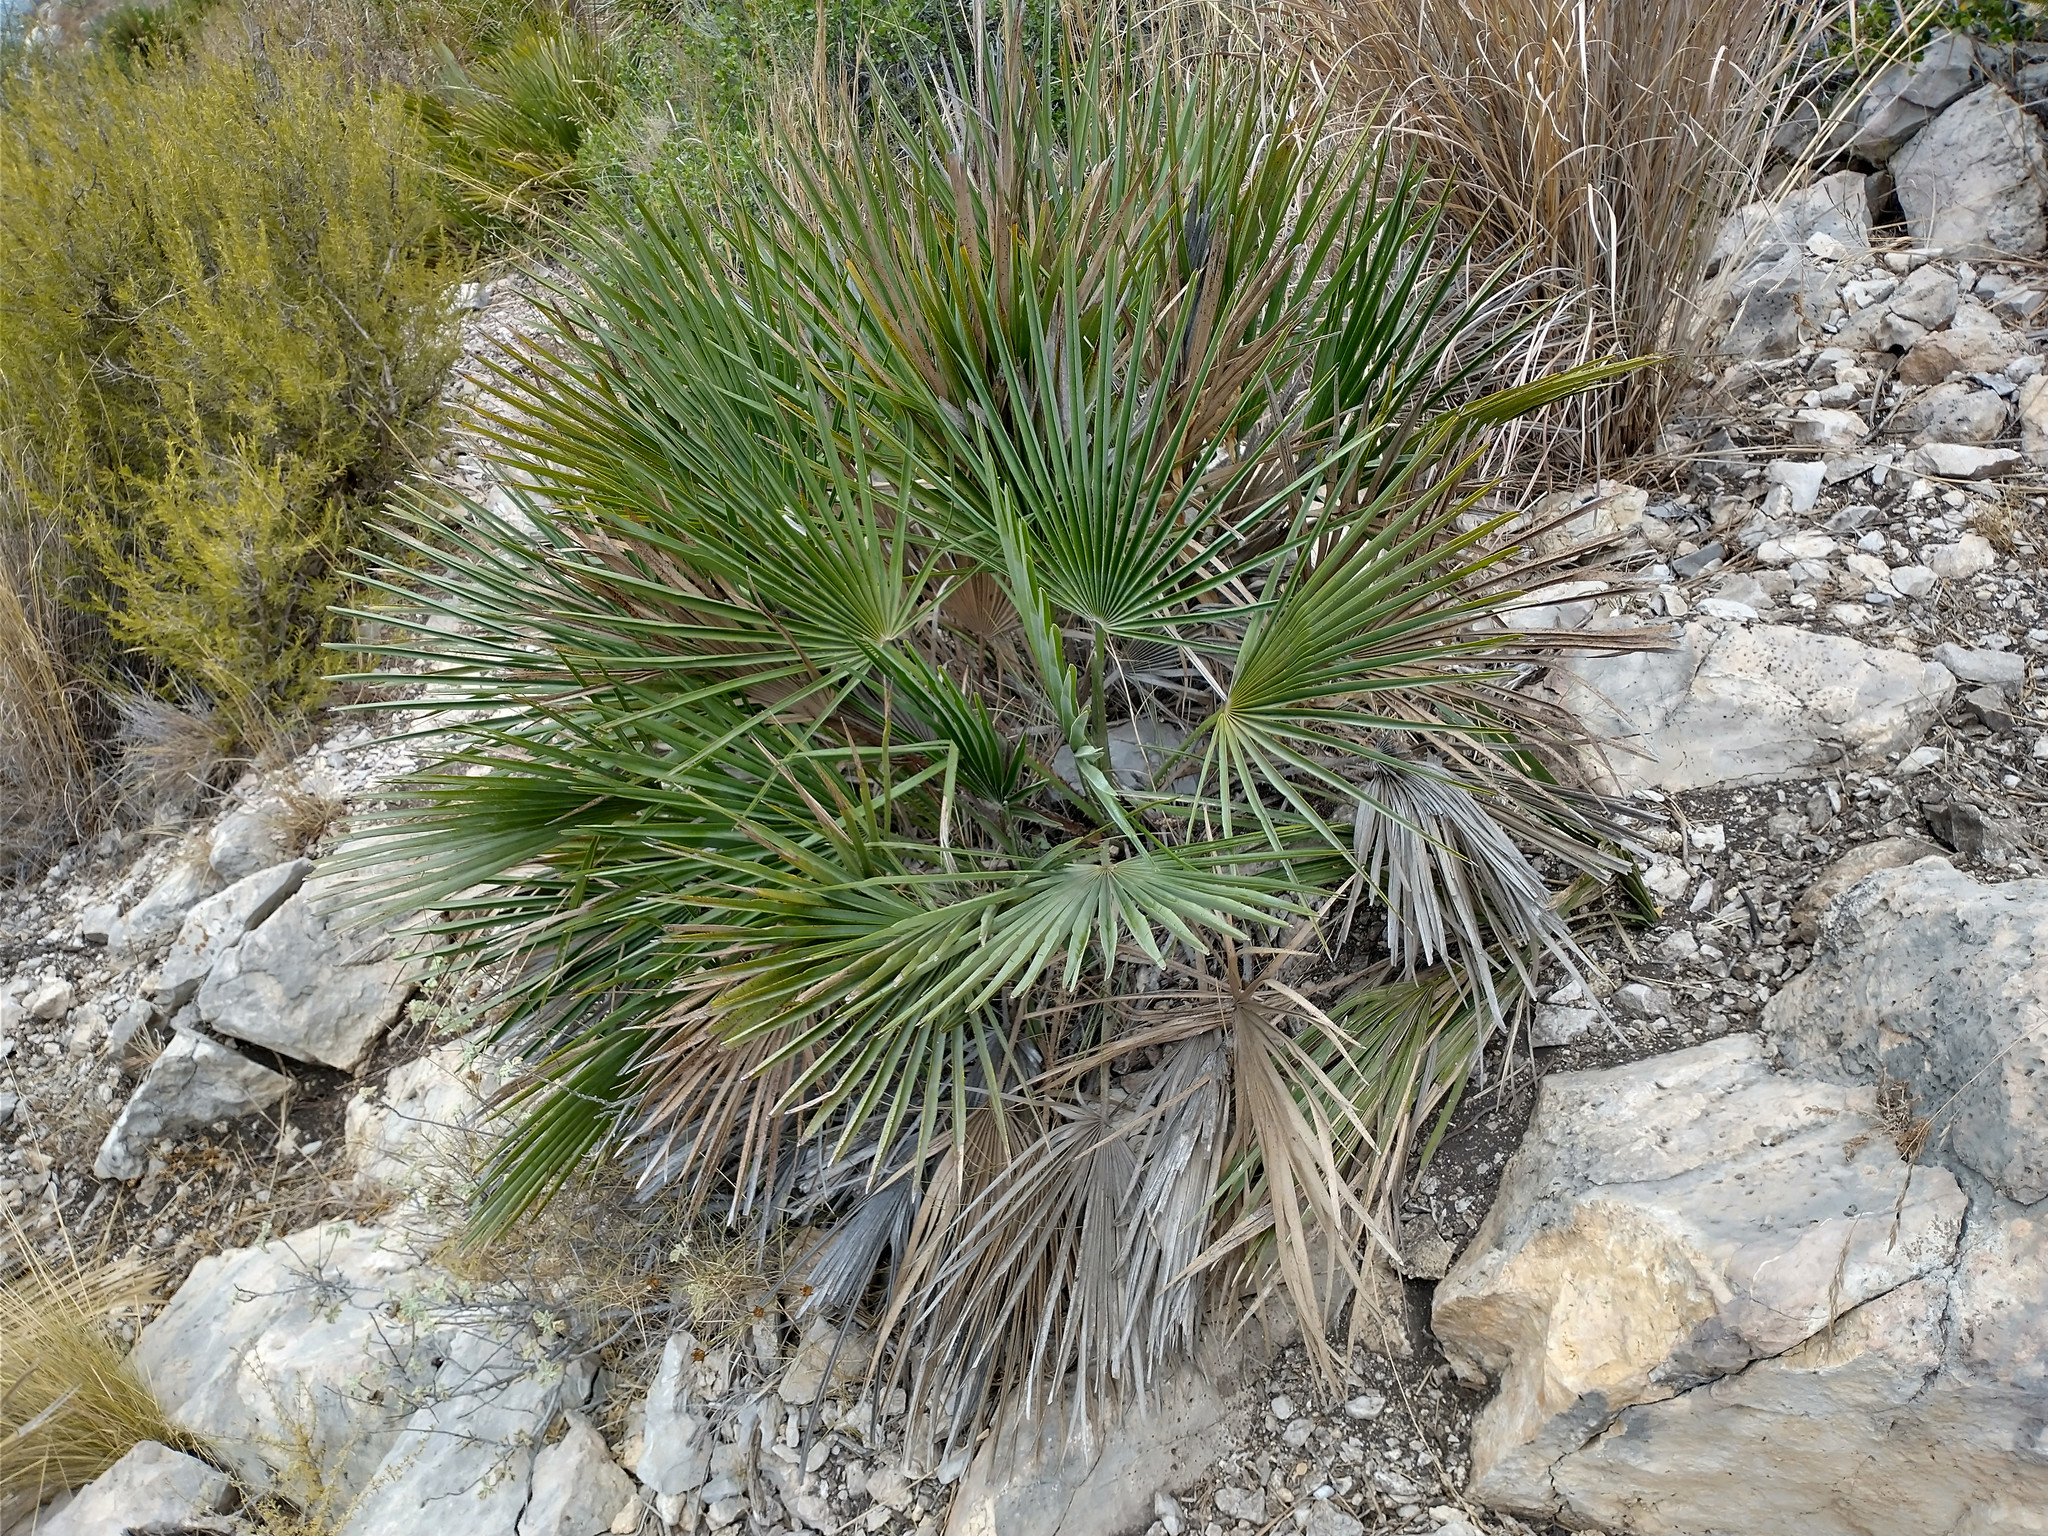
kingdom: Plantae
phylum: Tracheophyta
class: Liliopsida
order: Arecales
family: Arecaceae
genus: Chamaerops
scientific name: Chamaerops humilis
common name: Dwarf fan palm
